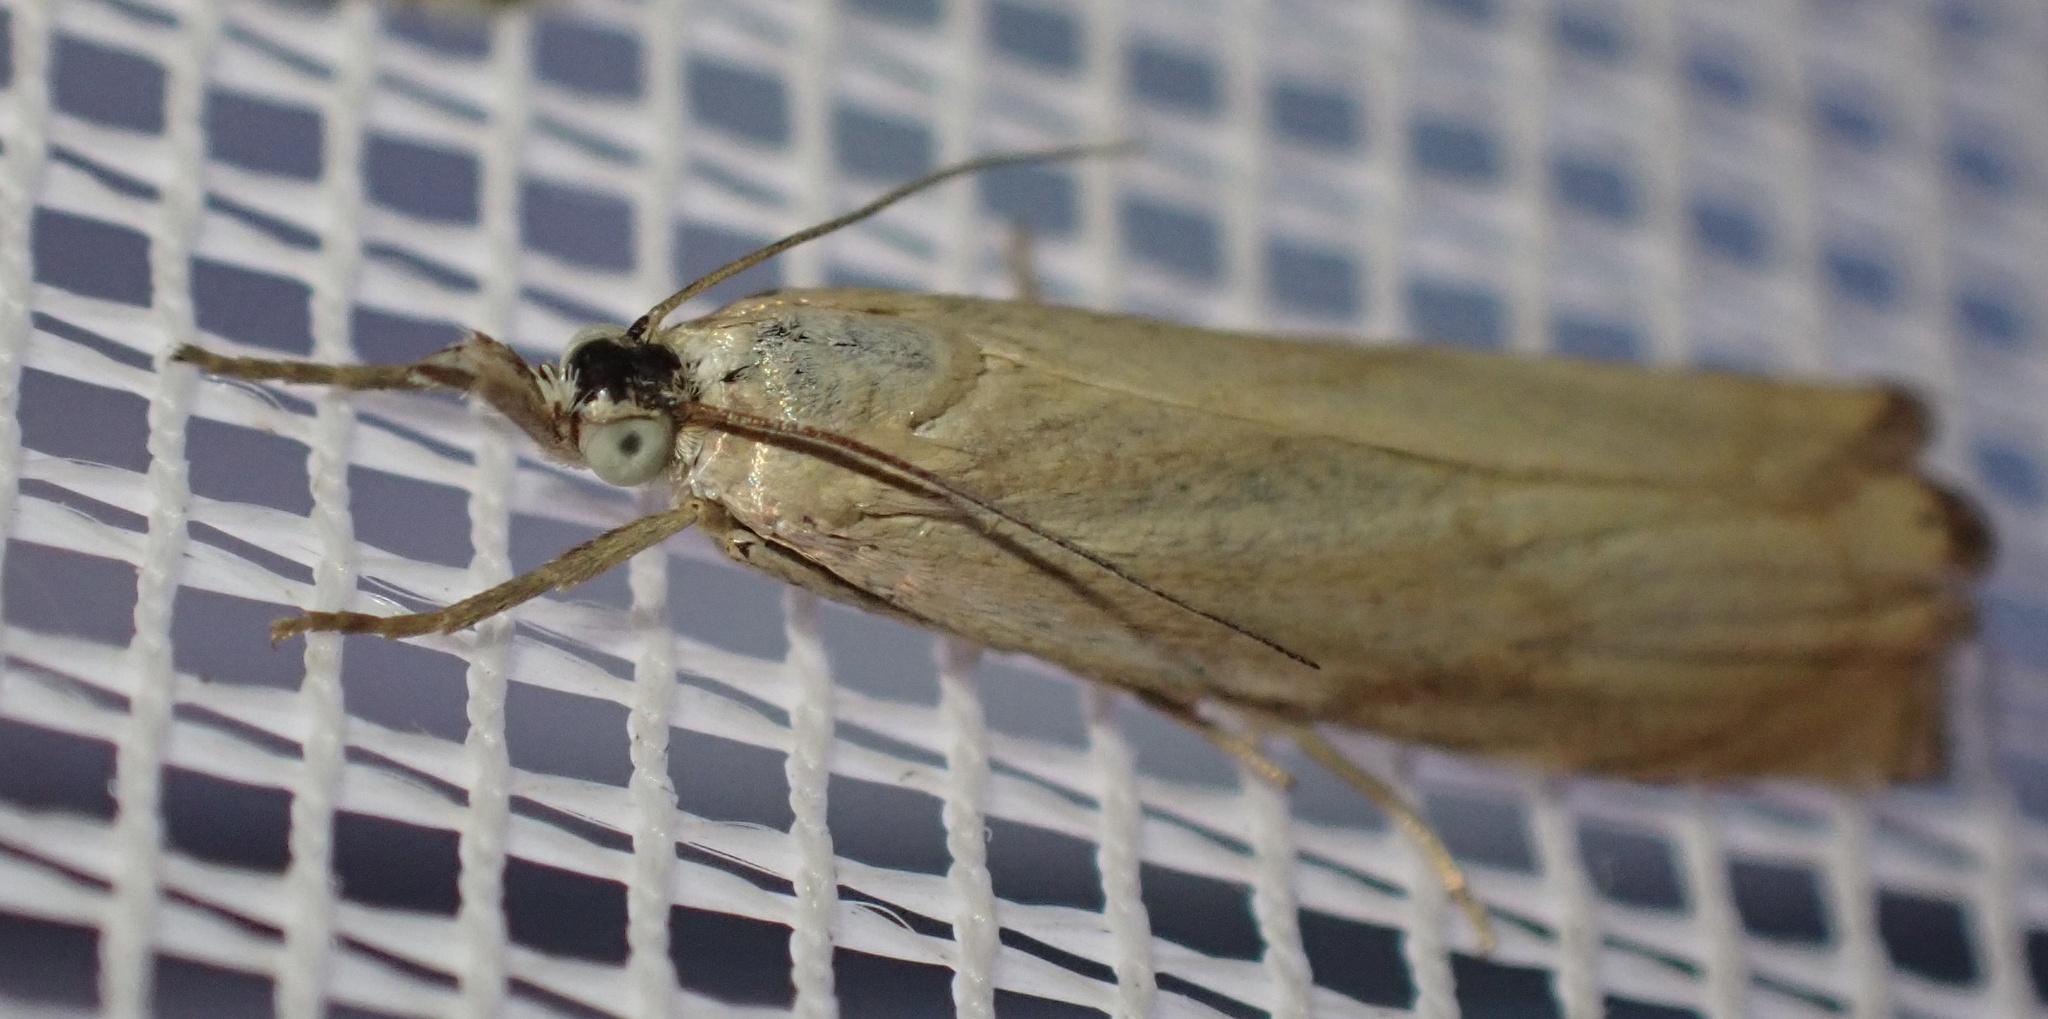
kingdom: Animalia
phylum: Arthropoda
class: Insecta
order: Lepidoptera
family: Crambidae
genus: Chrysoteuchia
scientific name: Chrysoteuchia culmella
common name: Garden grass-veneer
